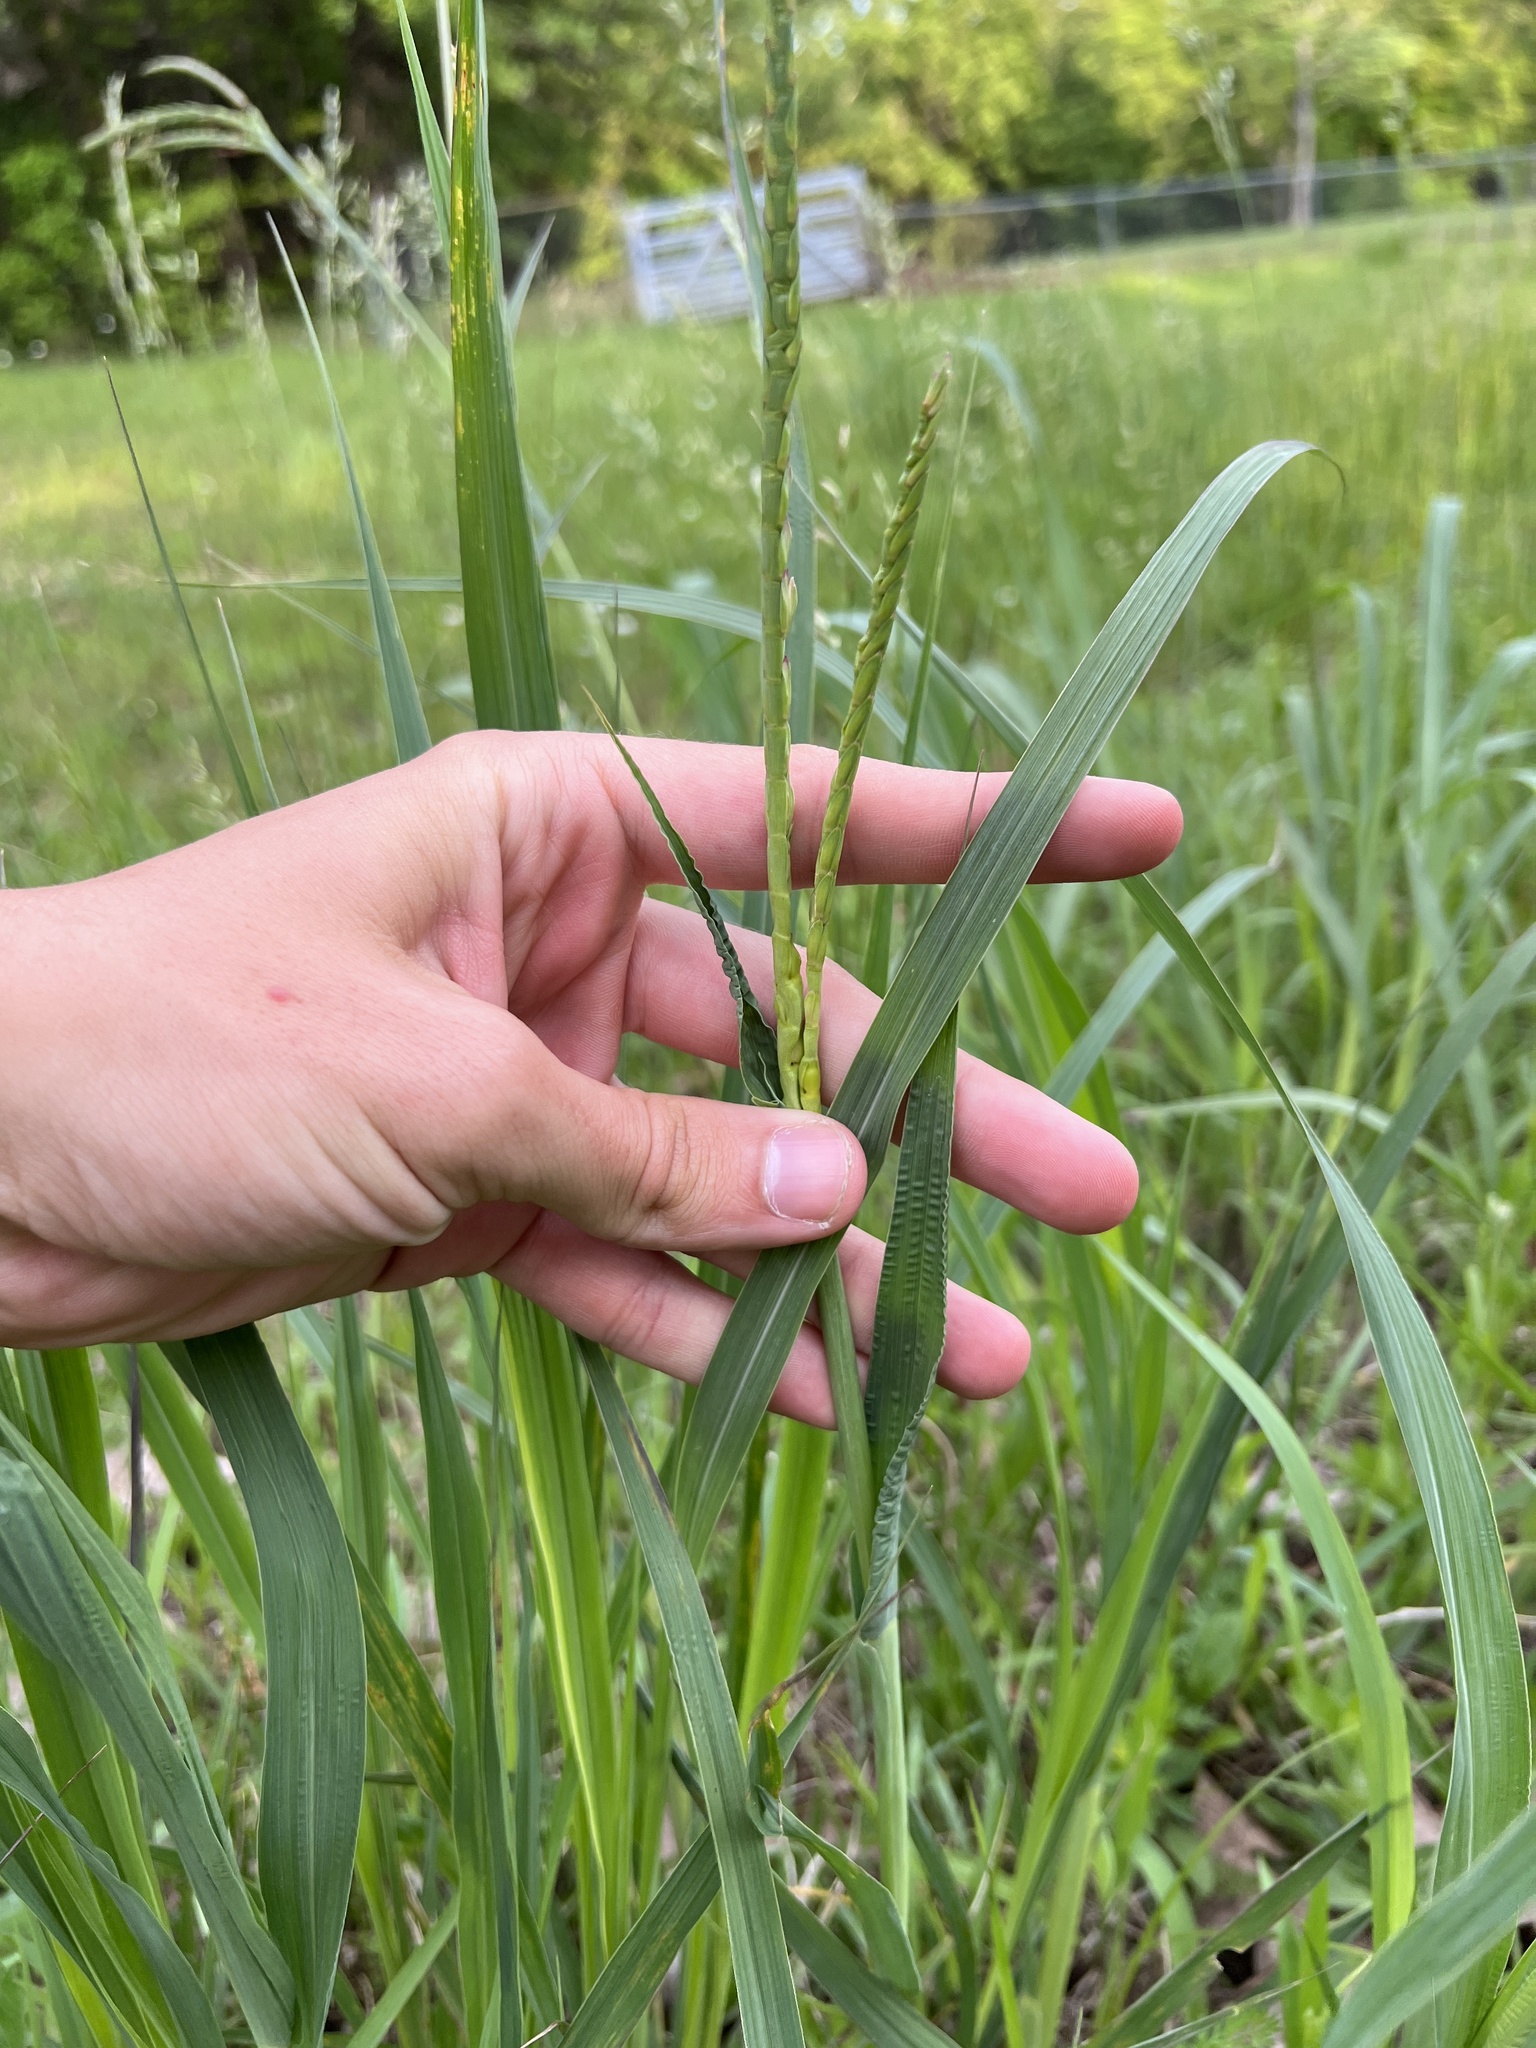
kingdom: Plantae
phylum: Tracheophyta
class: Liliopsida
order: Poales
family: Poaceae
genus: Tripsacum
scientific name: Tripsacum dactyloides
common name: Buffalo-grass
